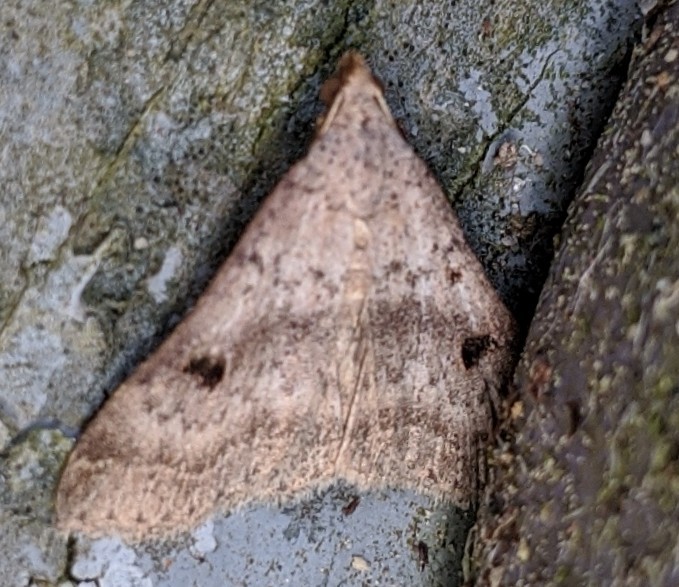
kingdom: Animalia
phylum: Arthropoda
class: Insecta
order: Lepidoptera
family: Erebidae
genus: Bleptina
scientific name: Bleptina caradrinalis
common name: Bent-winged owlet
